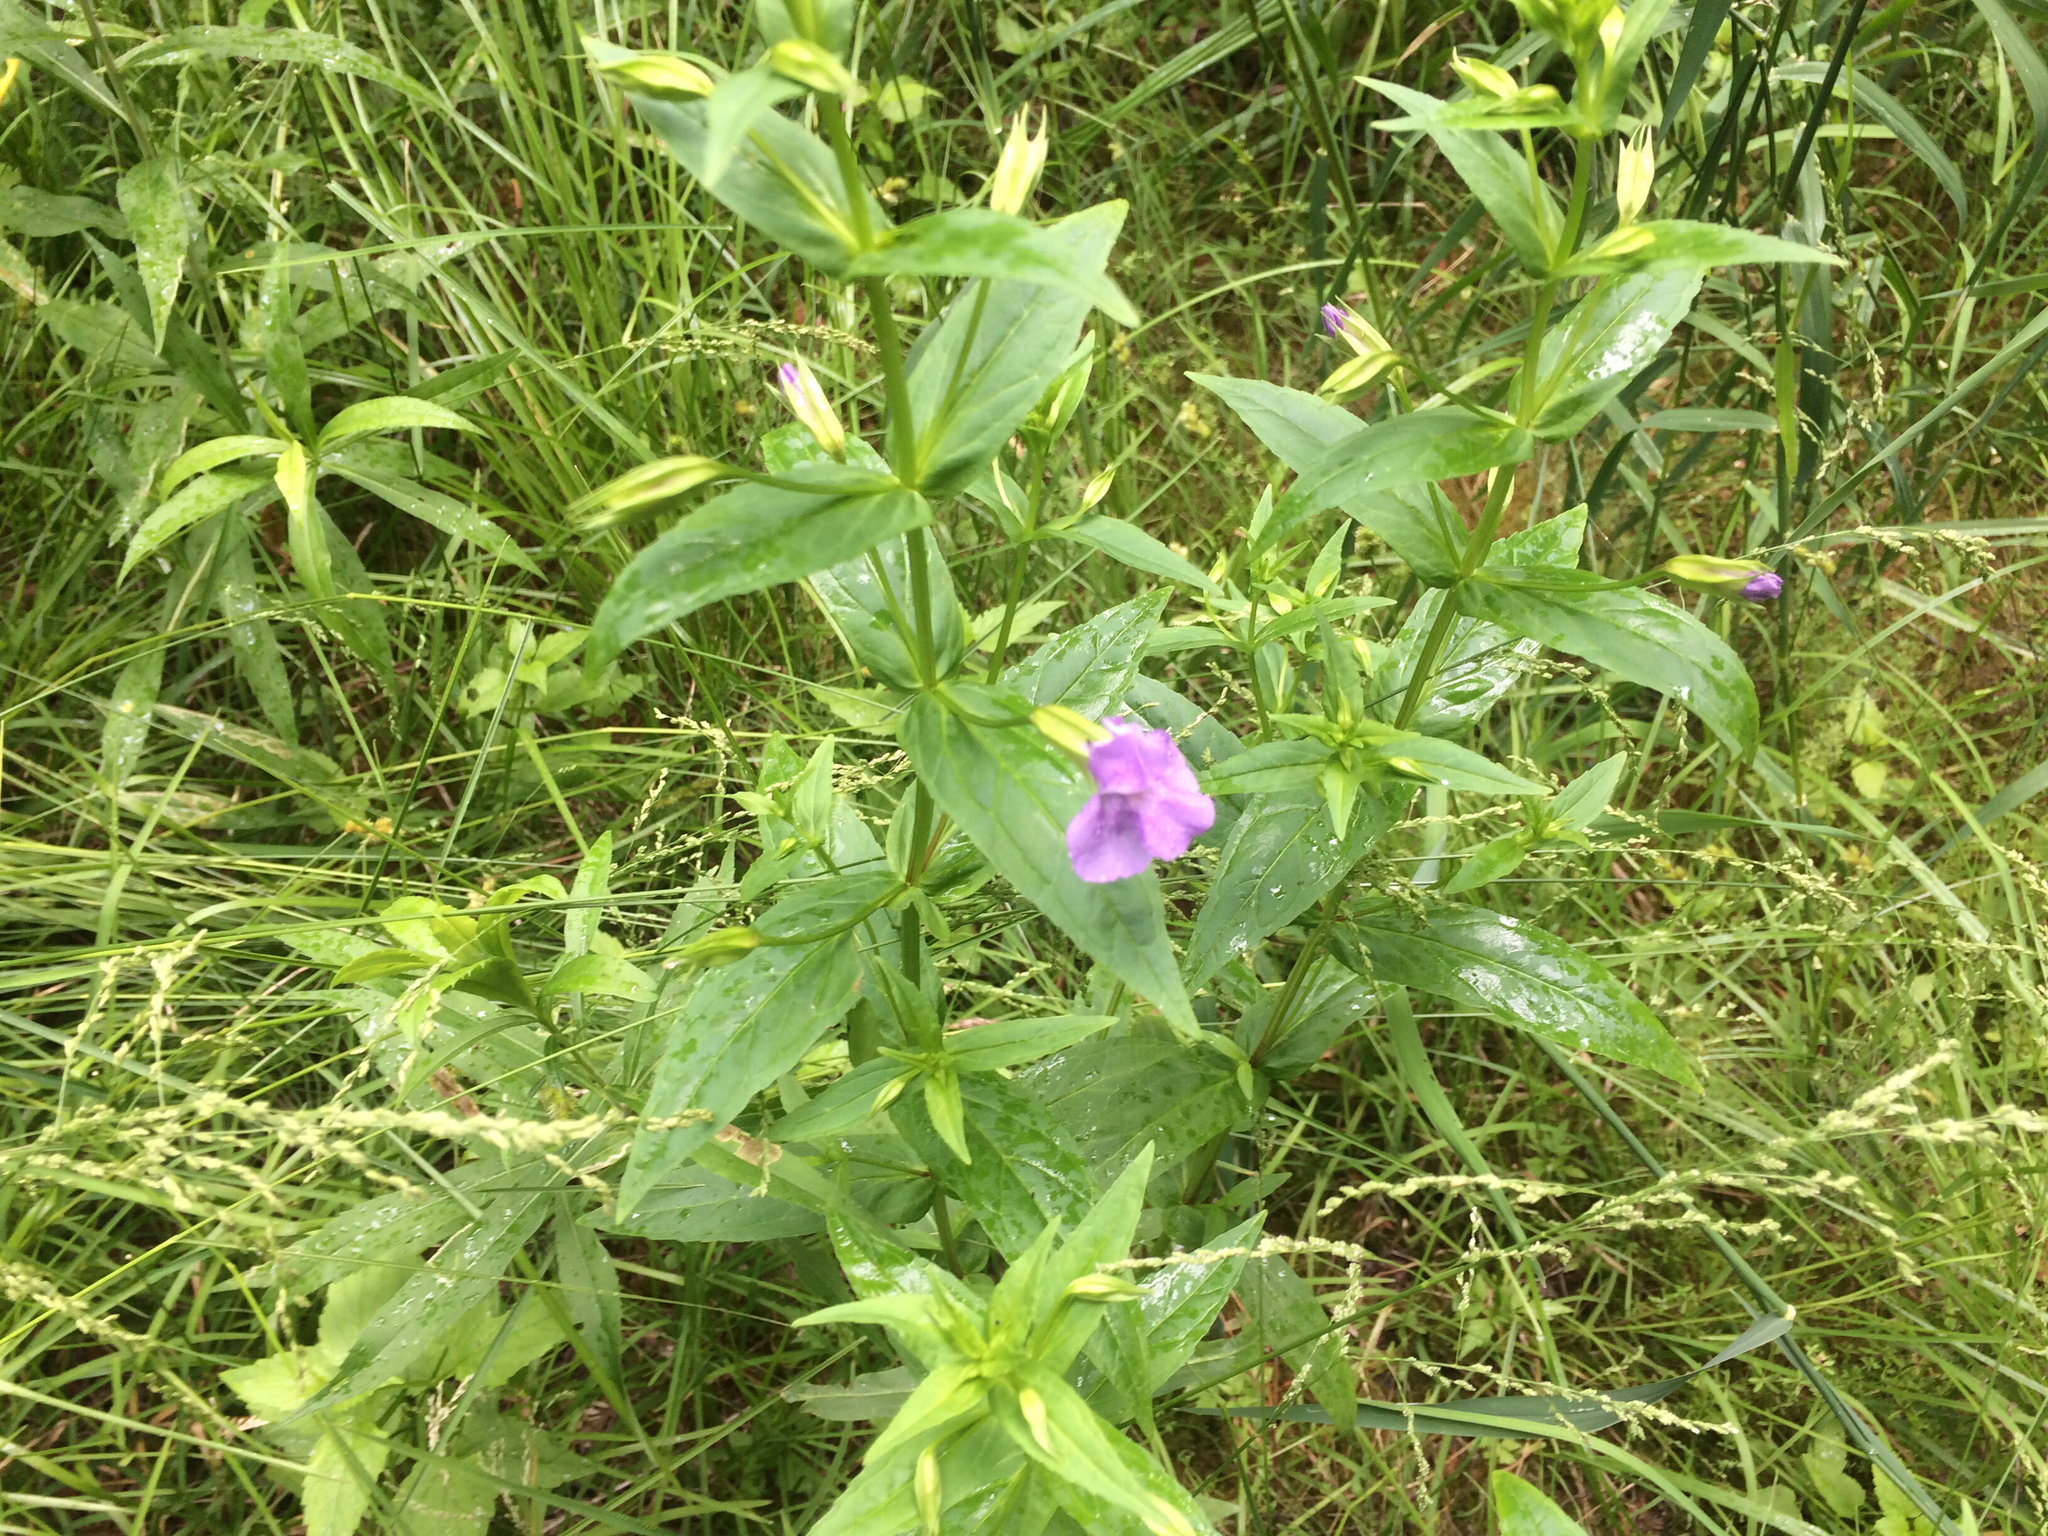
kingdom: Plantae
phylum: Tracheophyta
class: Magnoliopsida
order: Lamiales
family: Phrymaceae
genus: Mimulus
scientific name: Mimulus ringens
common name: Allegheny monkeyflower
